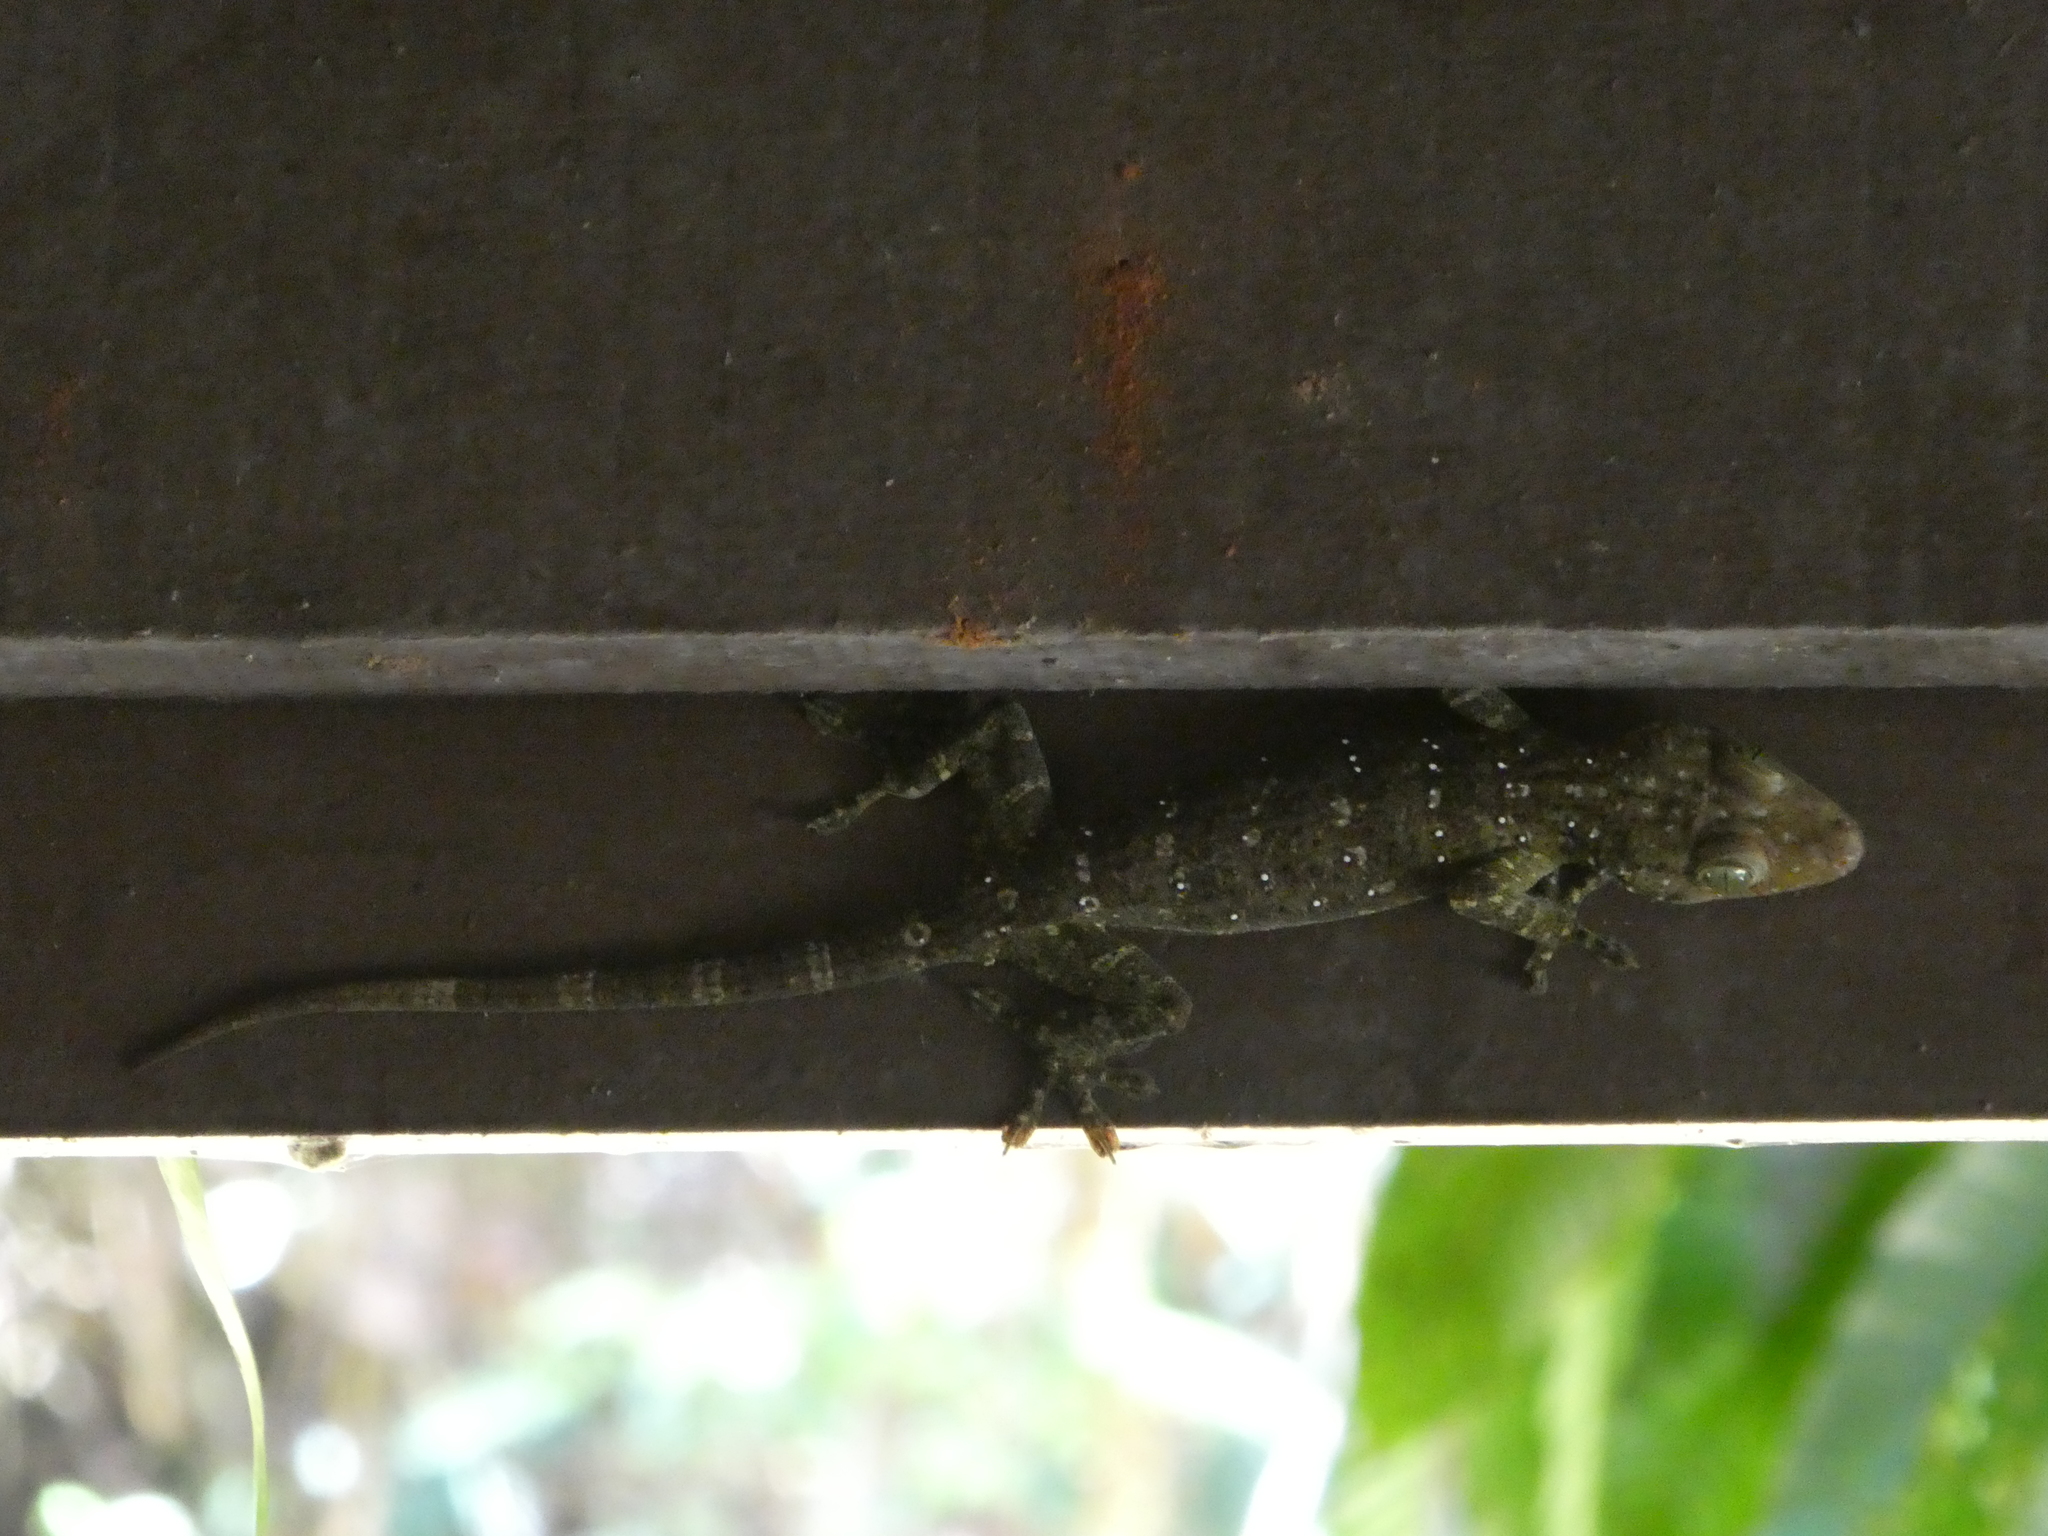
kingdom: Animalia
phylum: Chordata
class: Squamata
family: Gekkonidae
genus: Gekko
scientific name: Gekko albofasciolatus
